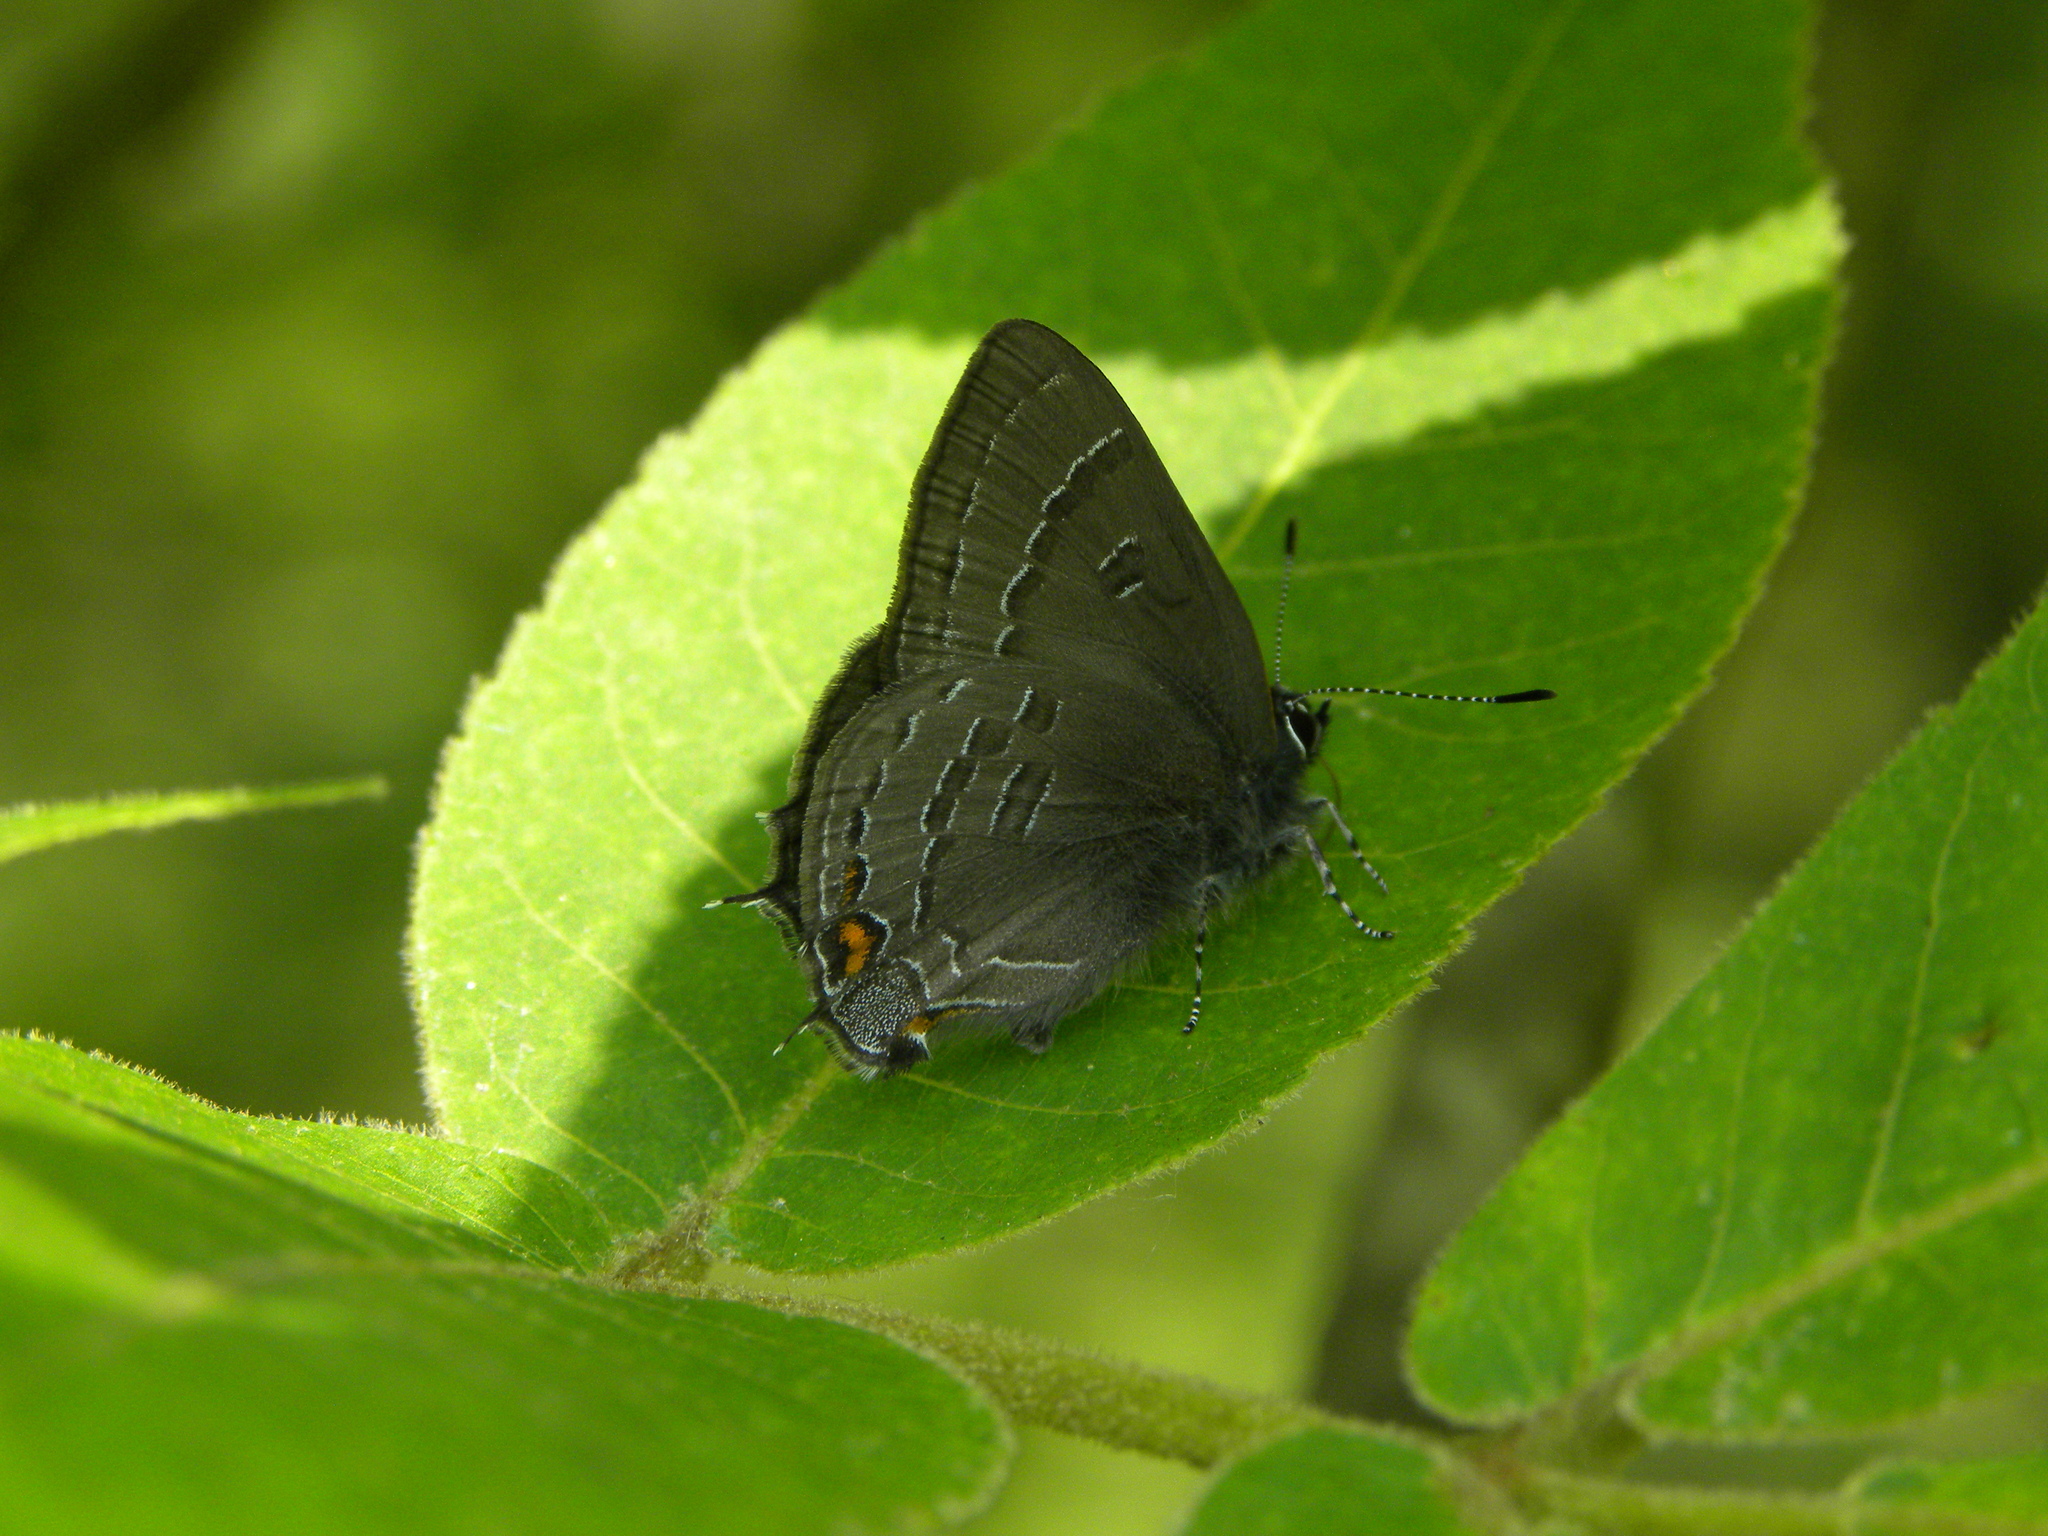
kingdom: Animalia
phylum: Arthropoda
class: Insecta
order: Lepidoptera
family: Lycaenidae
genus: Satyrium
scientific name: Satyrium calanus
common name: Banded hairstreak
